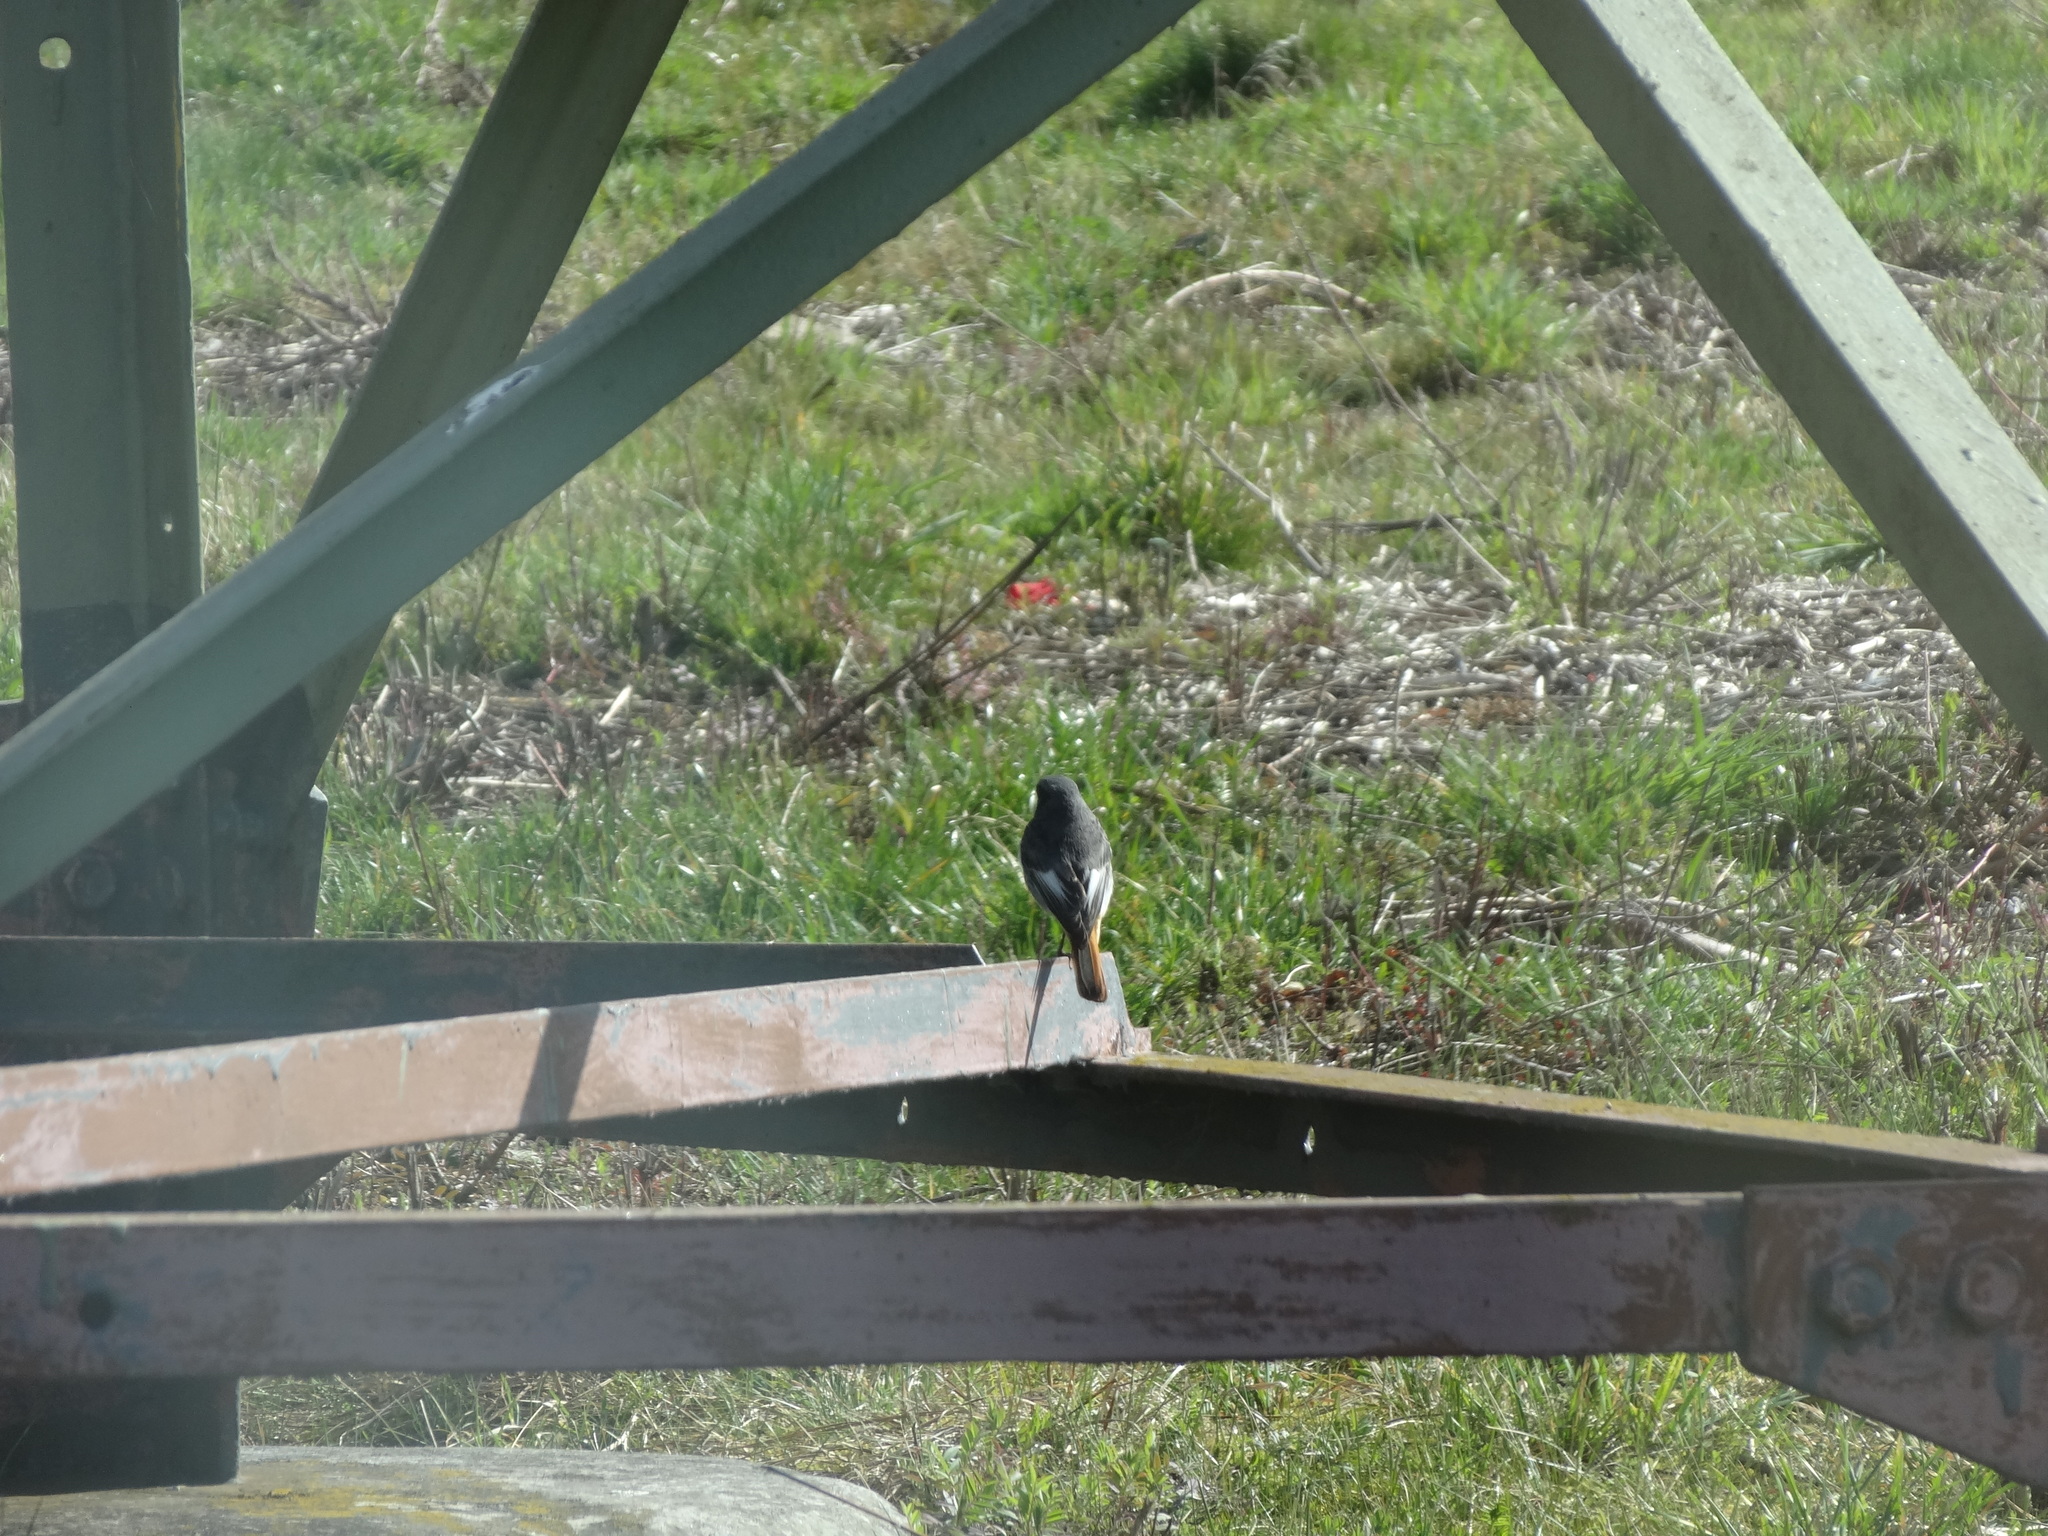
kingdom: Animalia
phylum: Chordata
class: Aves
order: Passeriformes
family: Muscicapidae
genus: Phoenicurus
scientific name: Phoenicurus ochruros
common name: Black redstart
